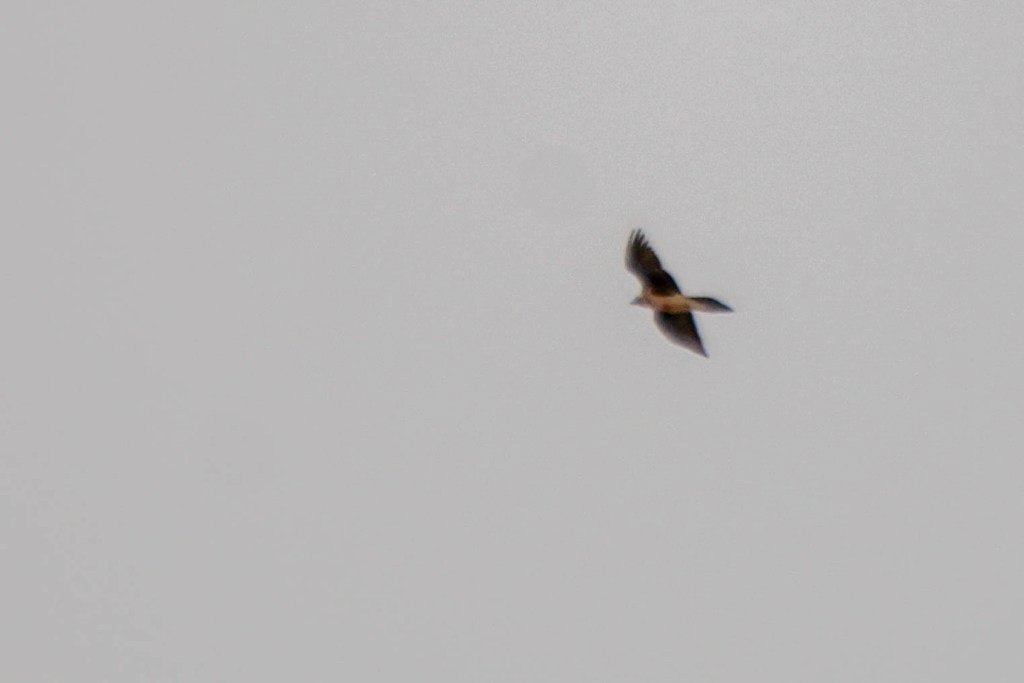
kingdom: Animalia
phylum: Chordata
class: Aves
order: Accipitriformes
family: Accipitridae
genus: Gypaetus
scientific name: Gypaetus barbatus
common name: Bearded vulture
